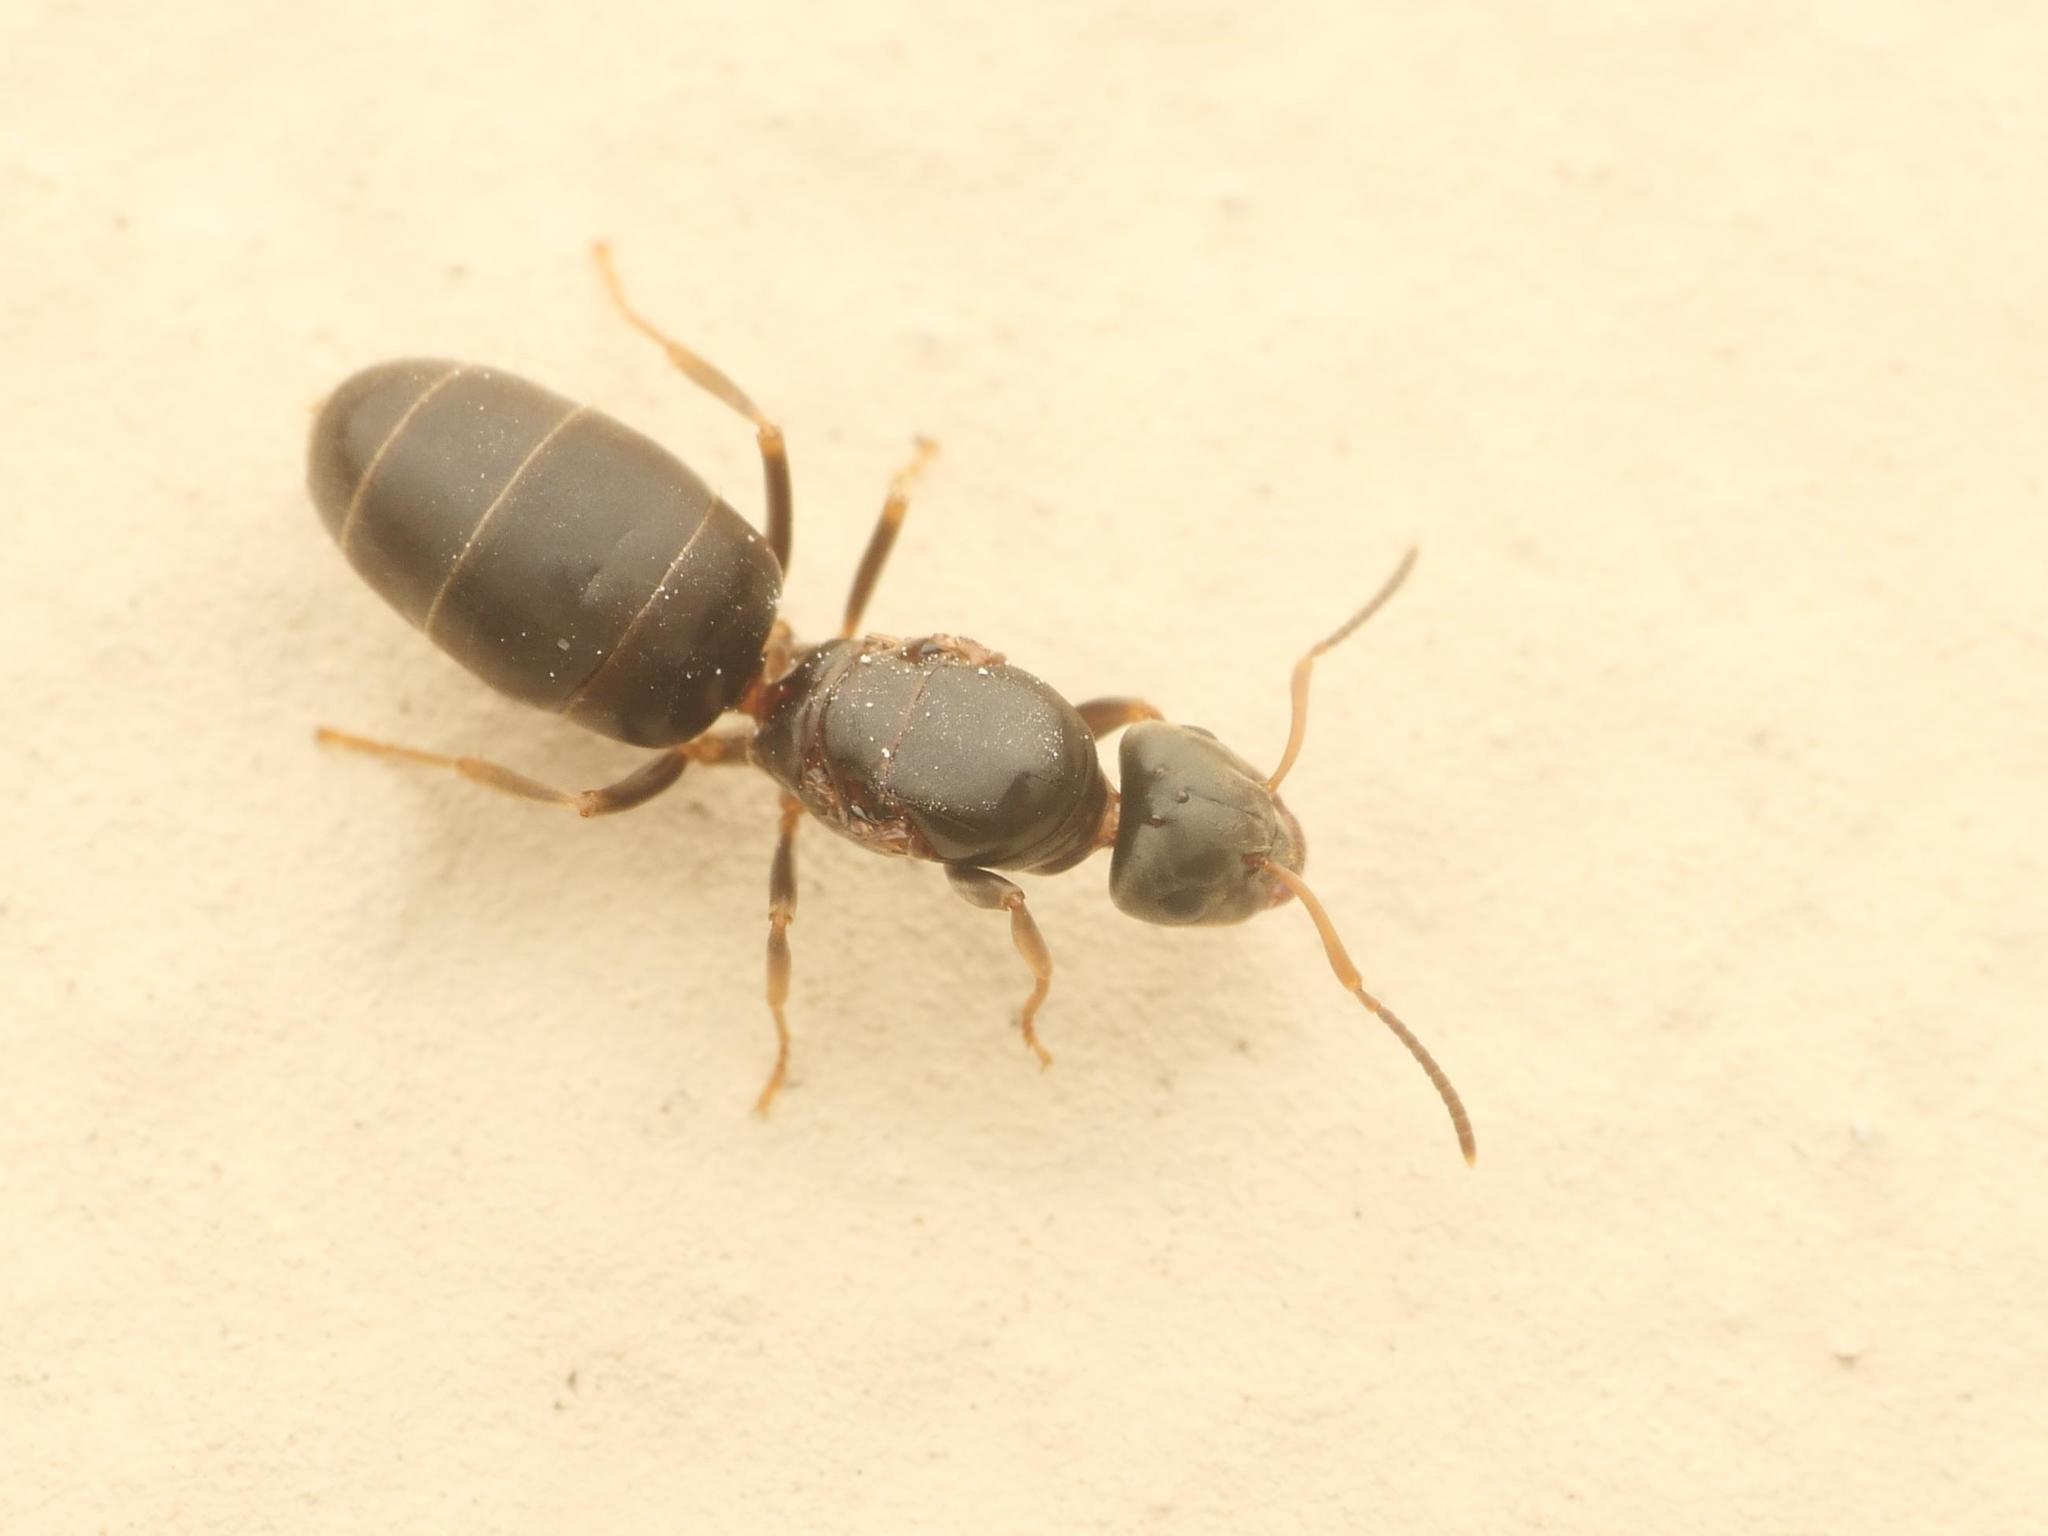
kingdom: Animalia
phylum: Arthropoda
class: Insecta
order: Hymenoptera
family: Formicidae
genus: Lasius
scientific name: Lasius brunneus
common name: Brown ant
